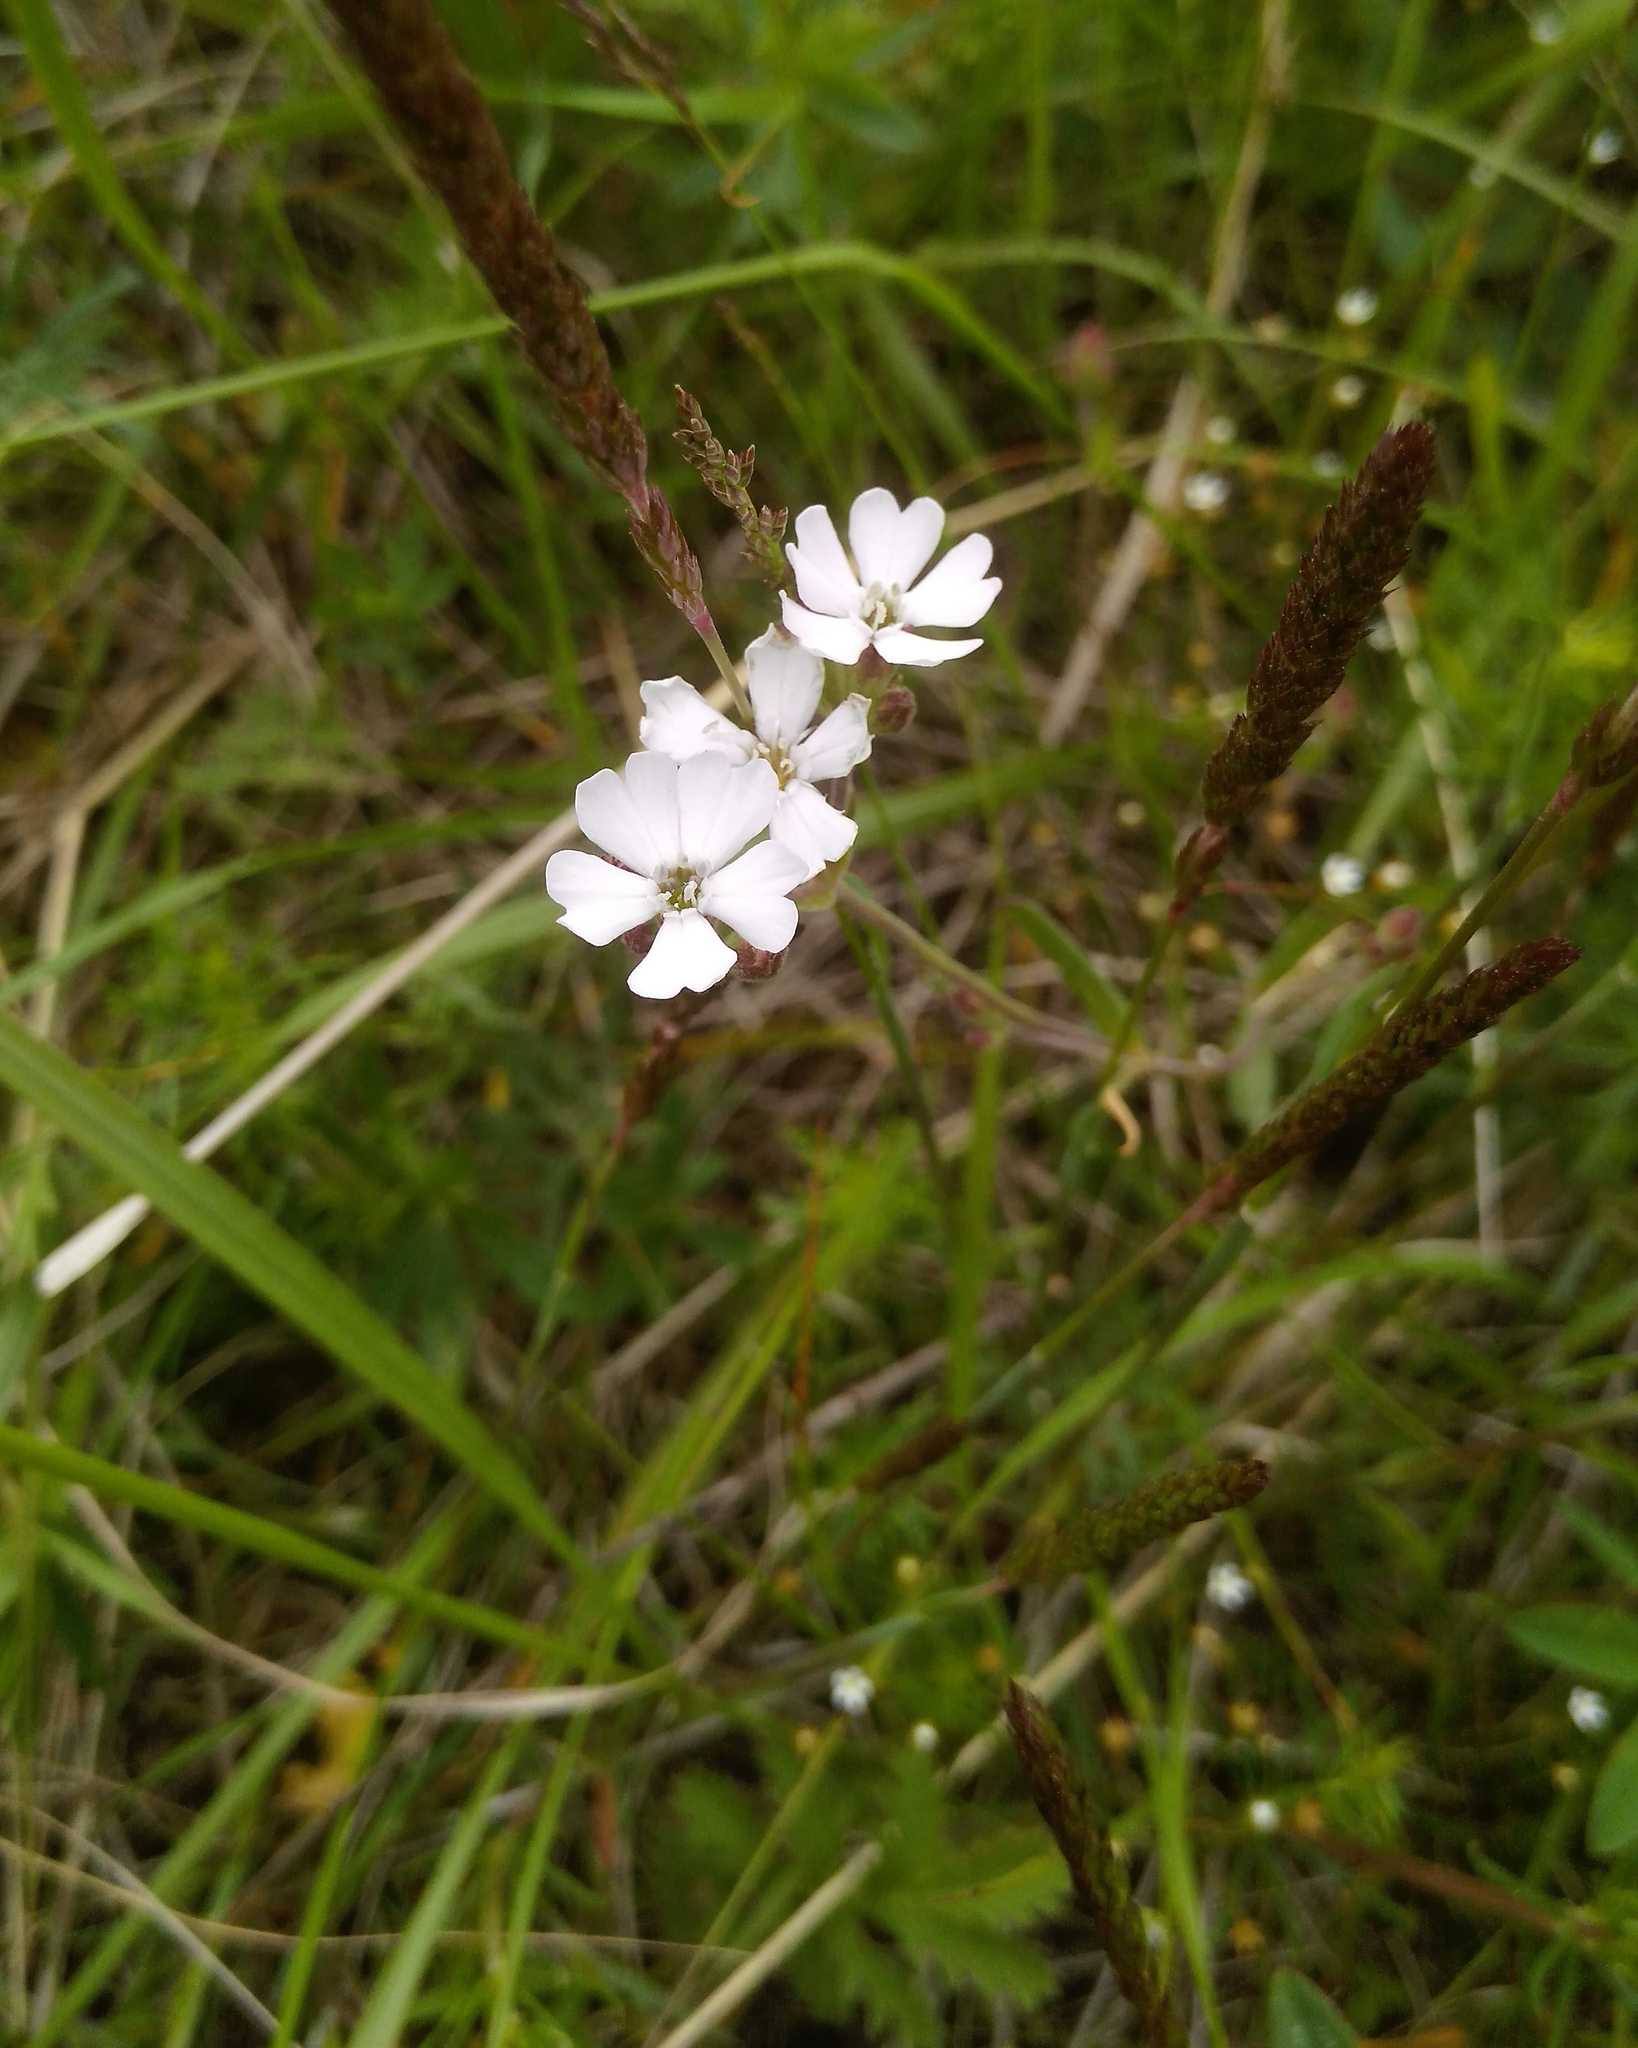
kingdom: Plantae
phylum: Tracheophyta
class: Magnoliopsida
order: Caryophyllales
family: Caryophyllaceae
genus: Silene
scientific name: Silene orientalimongolica
